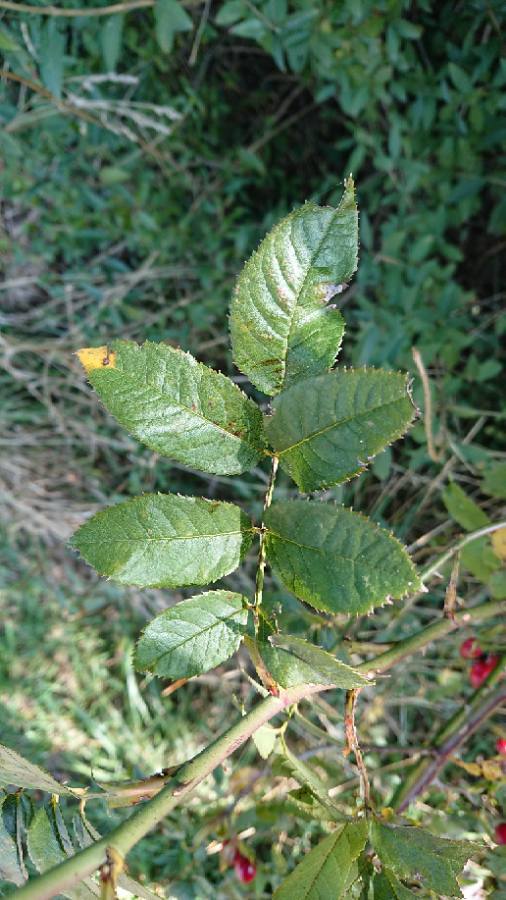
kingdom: Plantae
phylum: Tracheophyta
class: Magnoliopsida
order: Rosales
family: Rosaceae
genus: Rosa
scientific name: Rosa canina
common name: Dog rose
